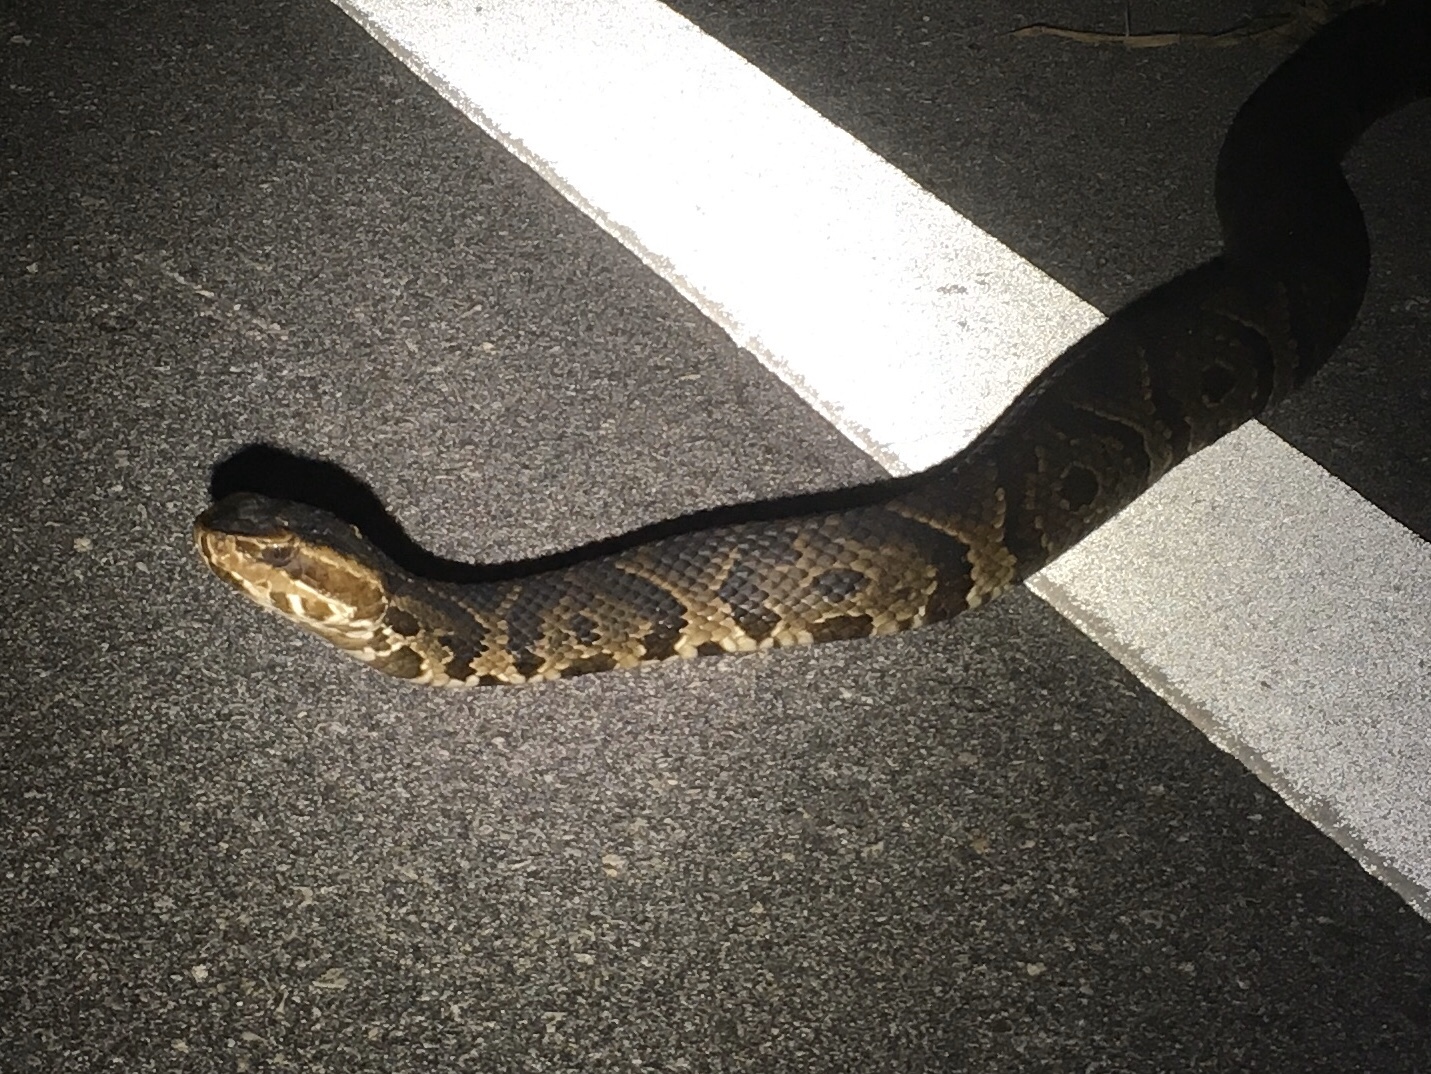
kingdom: Animalia
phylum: Chordata
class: Squamata
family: Viperidae
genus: Agkistrodon
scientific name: Agkistrodon conanti
